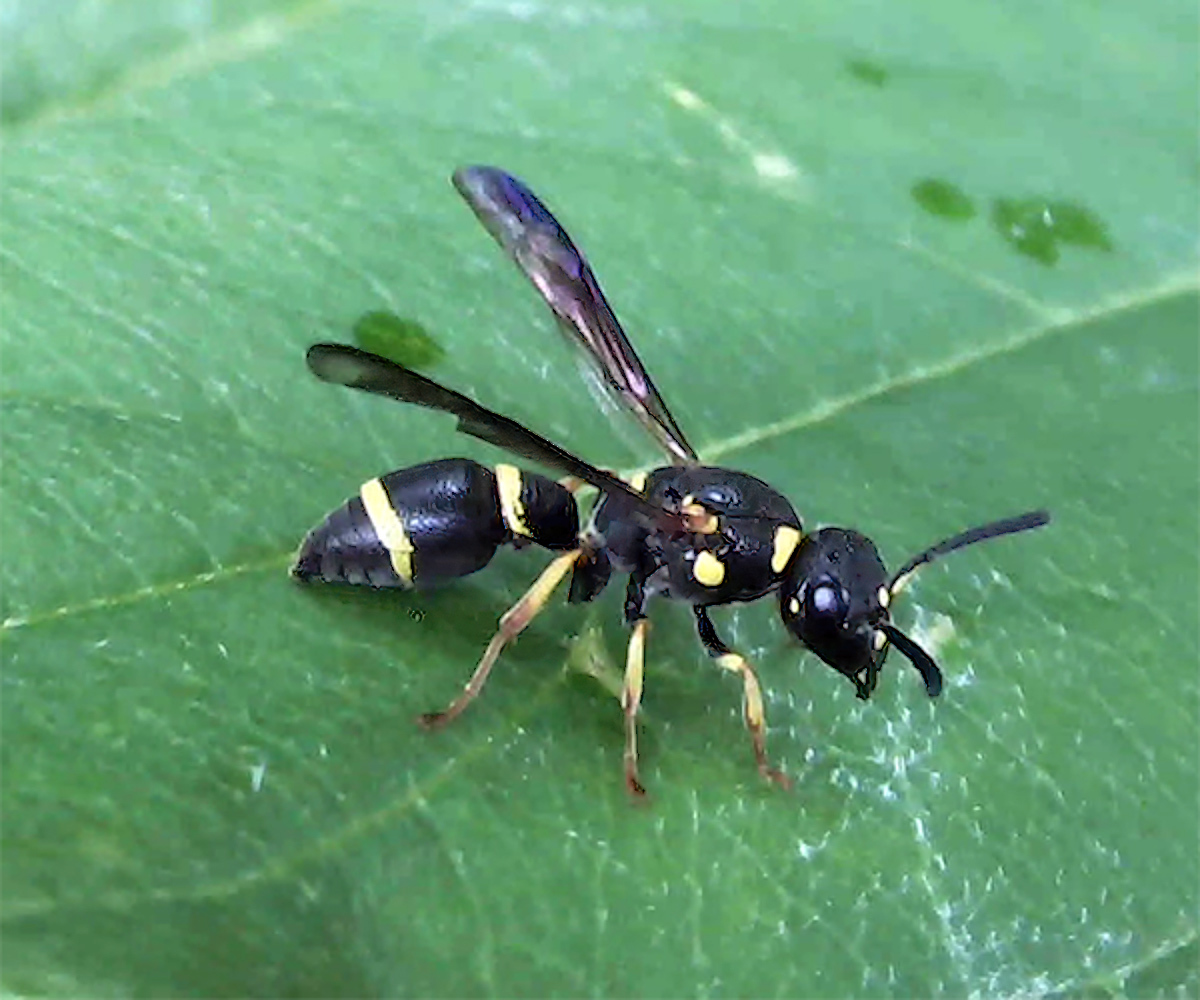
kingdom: Animalia
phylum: Arthropoda
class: Insecta
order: Hymenoptera
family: Eumenidae
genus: Parancistrocerus
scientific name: Parancistrocerus perennis
